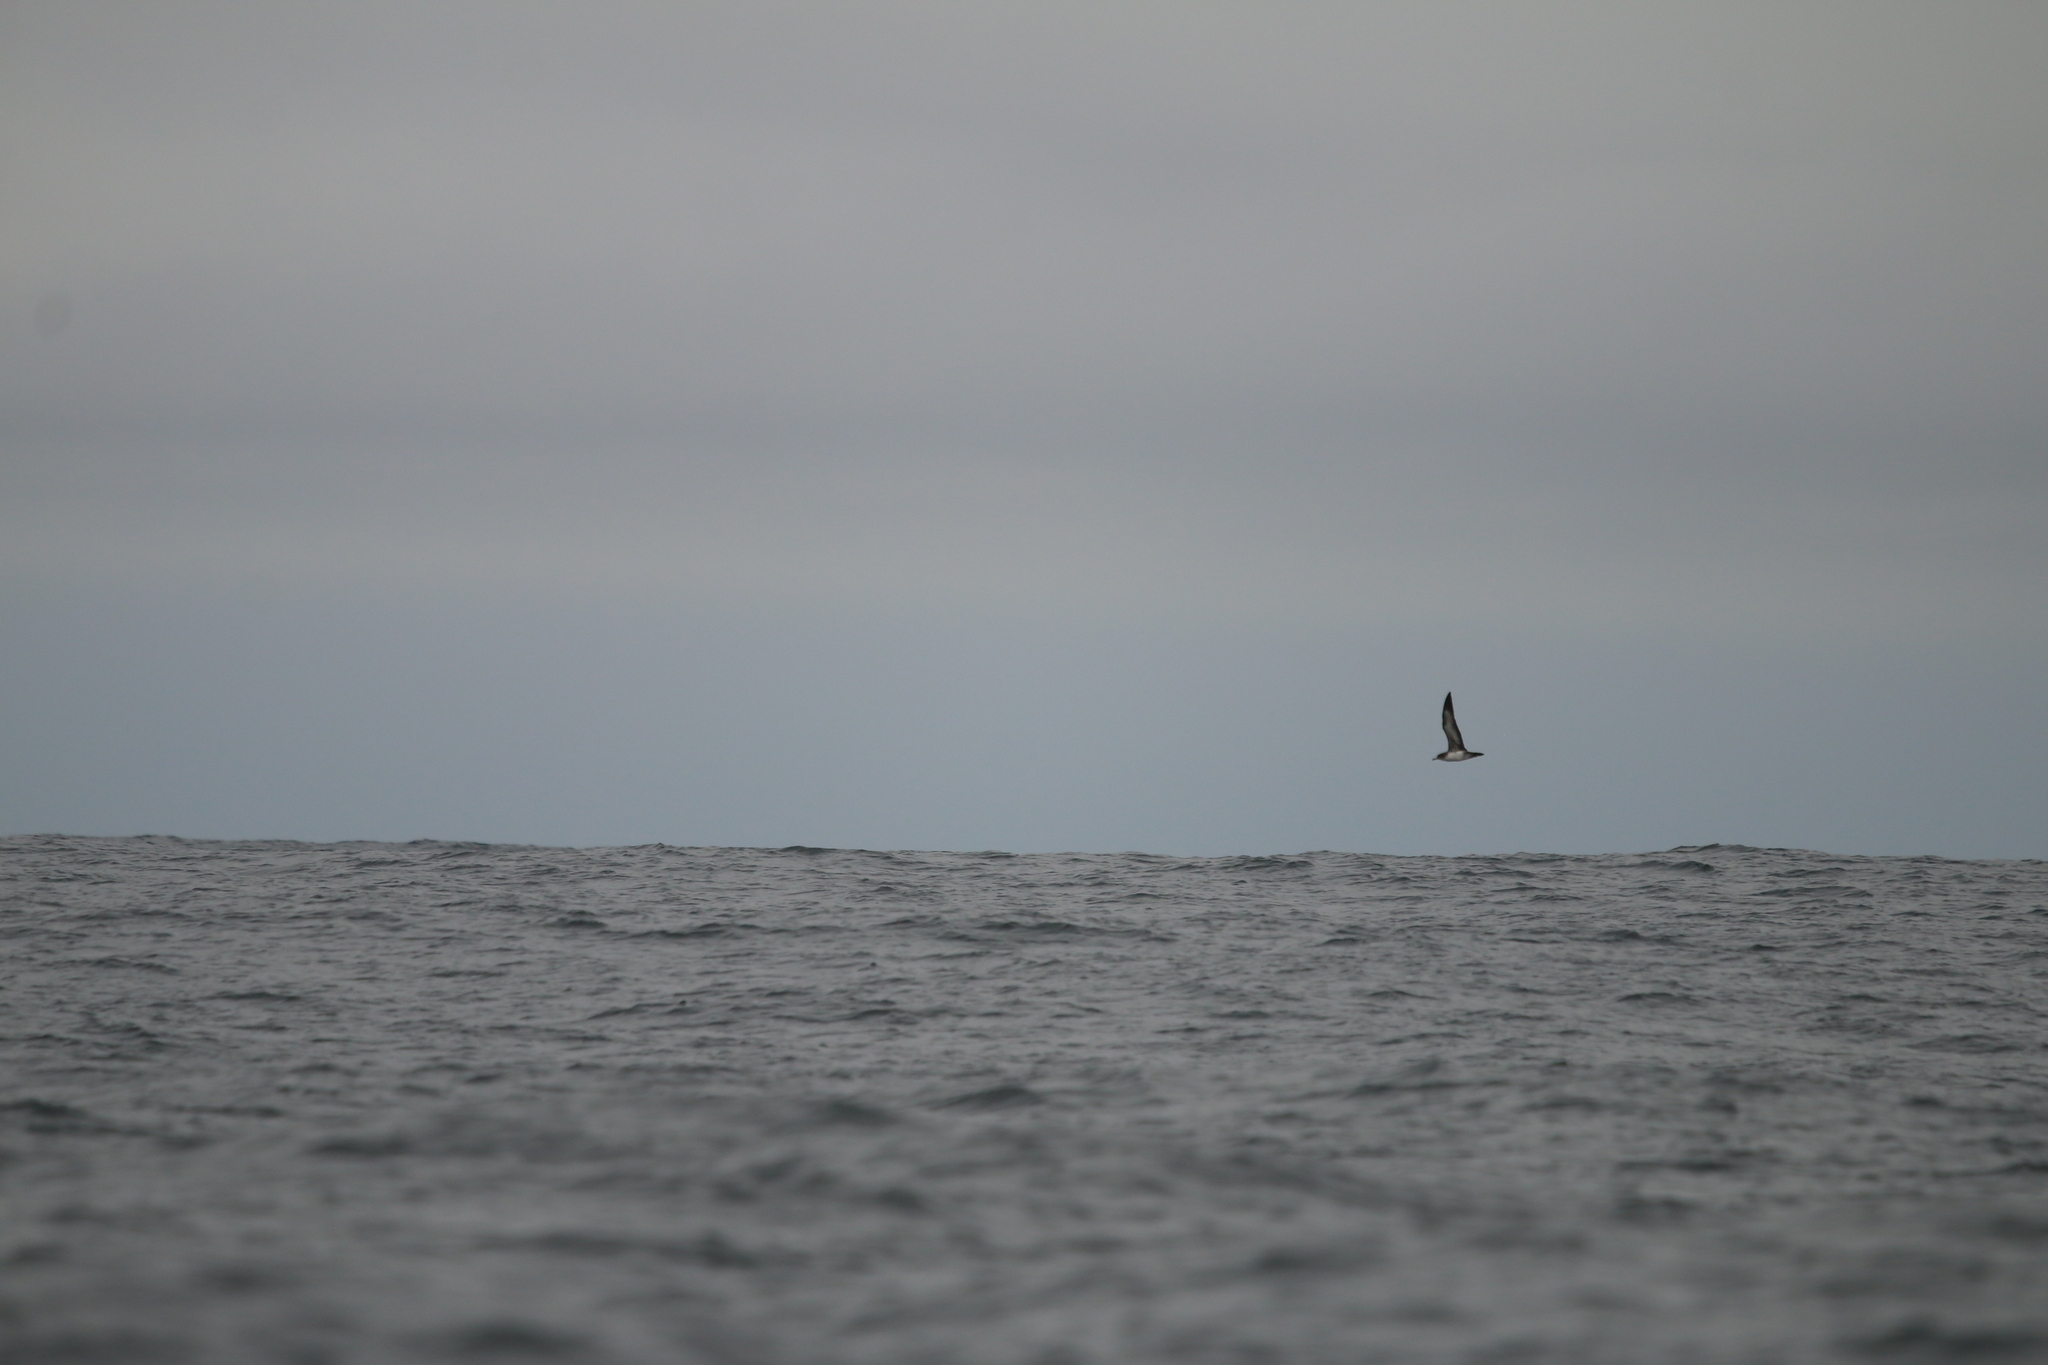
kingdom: Animalia
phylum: Chordata
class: Aves
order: Procellariiformes
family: Procellariidae
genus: Puffinus
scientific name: Puffinus creatopus
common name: Pink-footed shearwater
